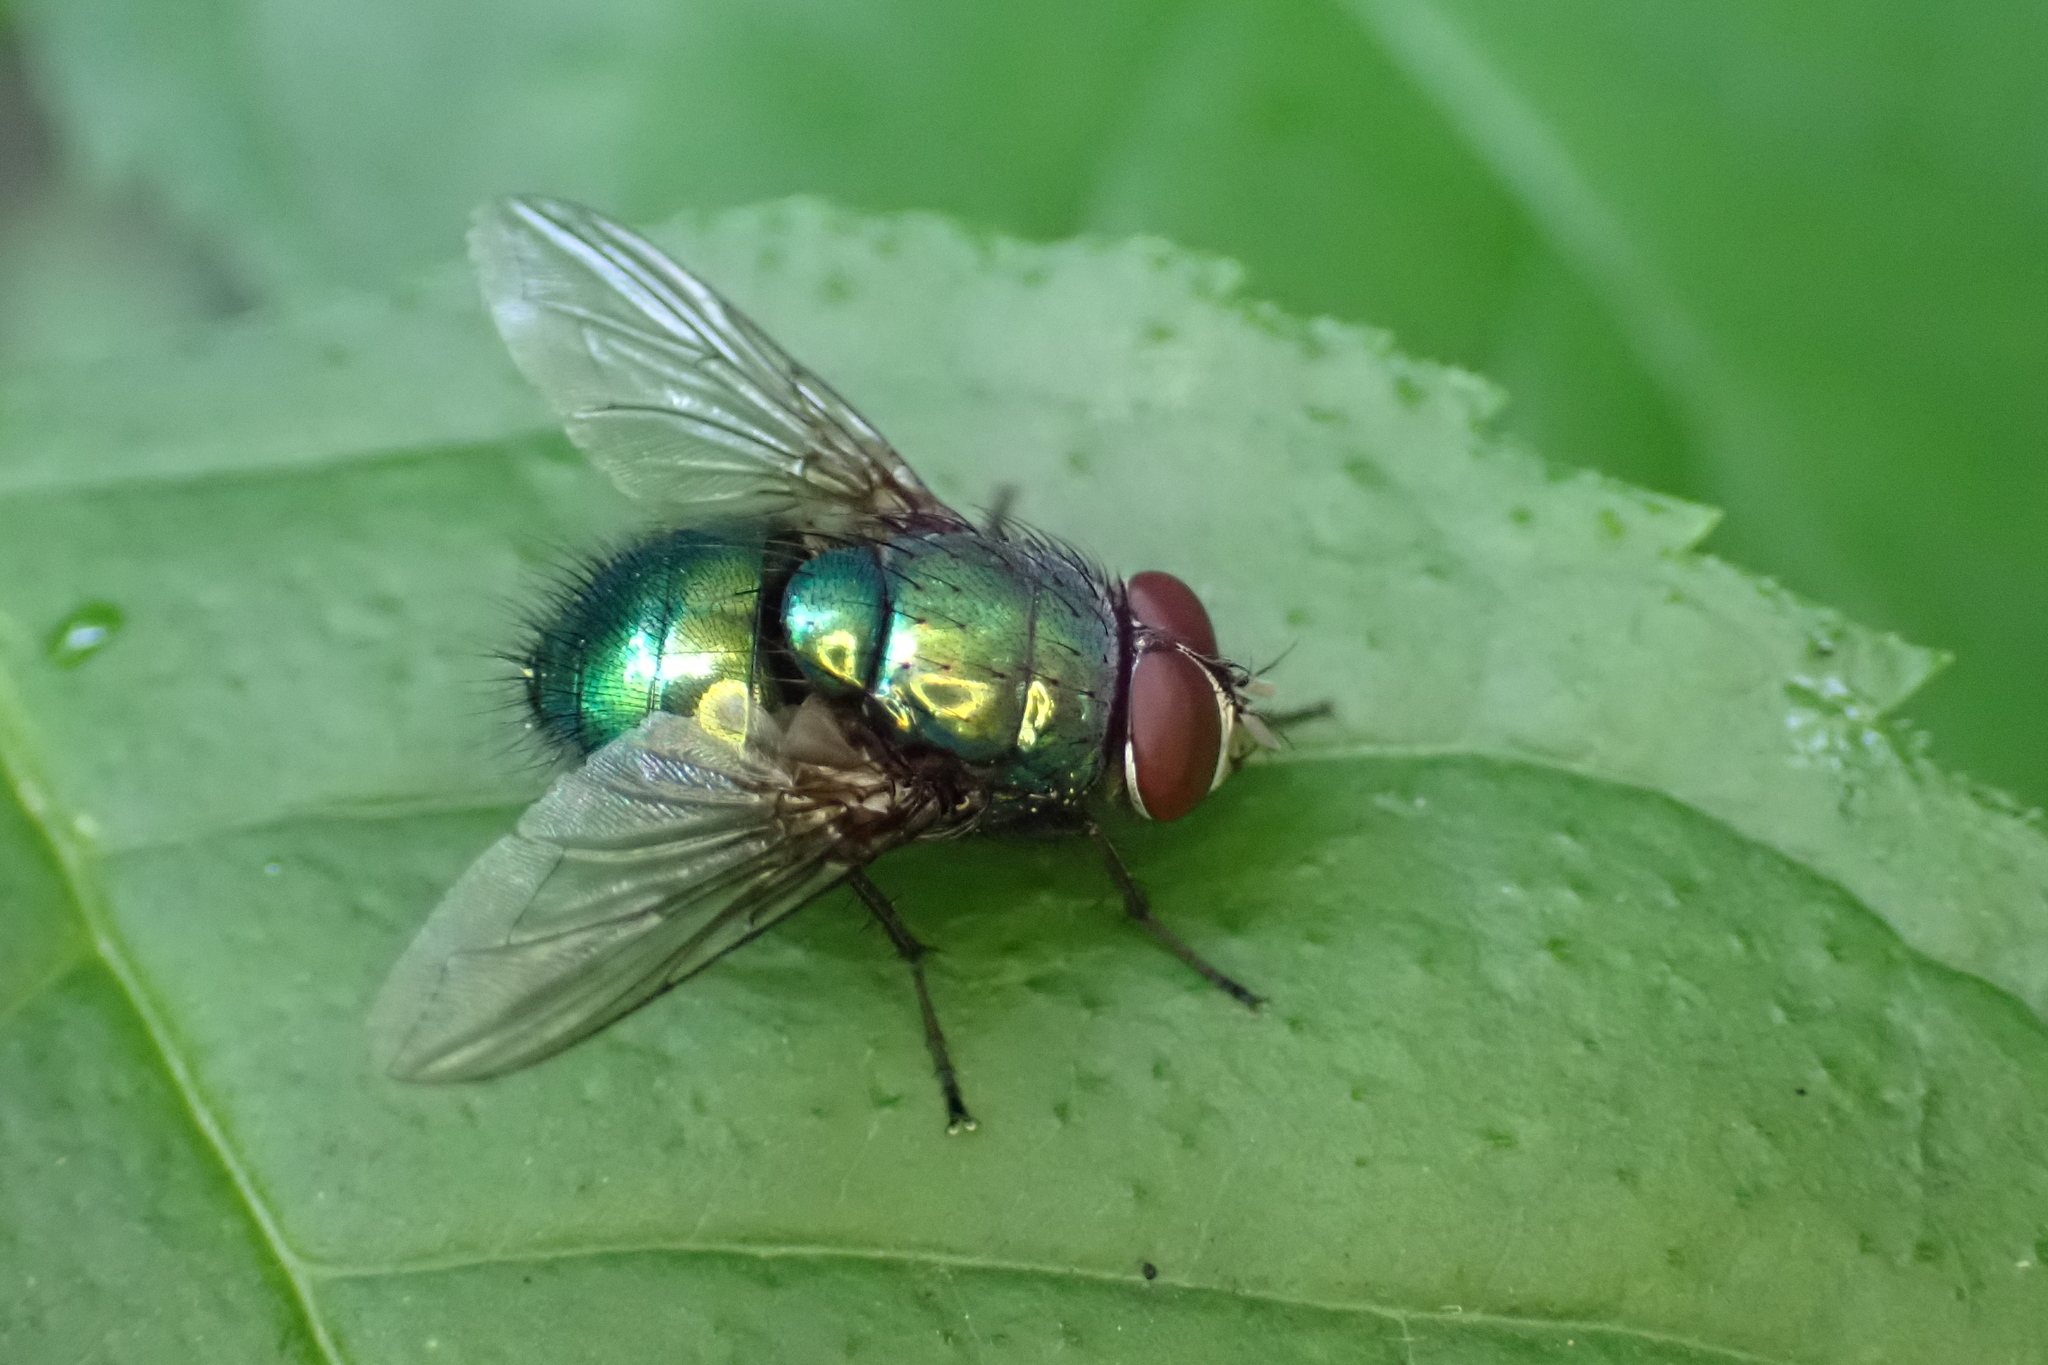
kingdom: Animalia
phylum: Arthropoda
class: Insecta
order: Diptera
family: Calliphoridae
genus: Lucilia
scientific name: Lucilia
